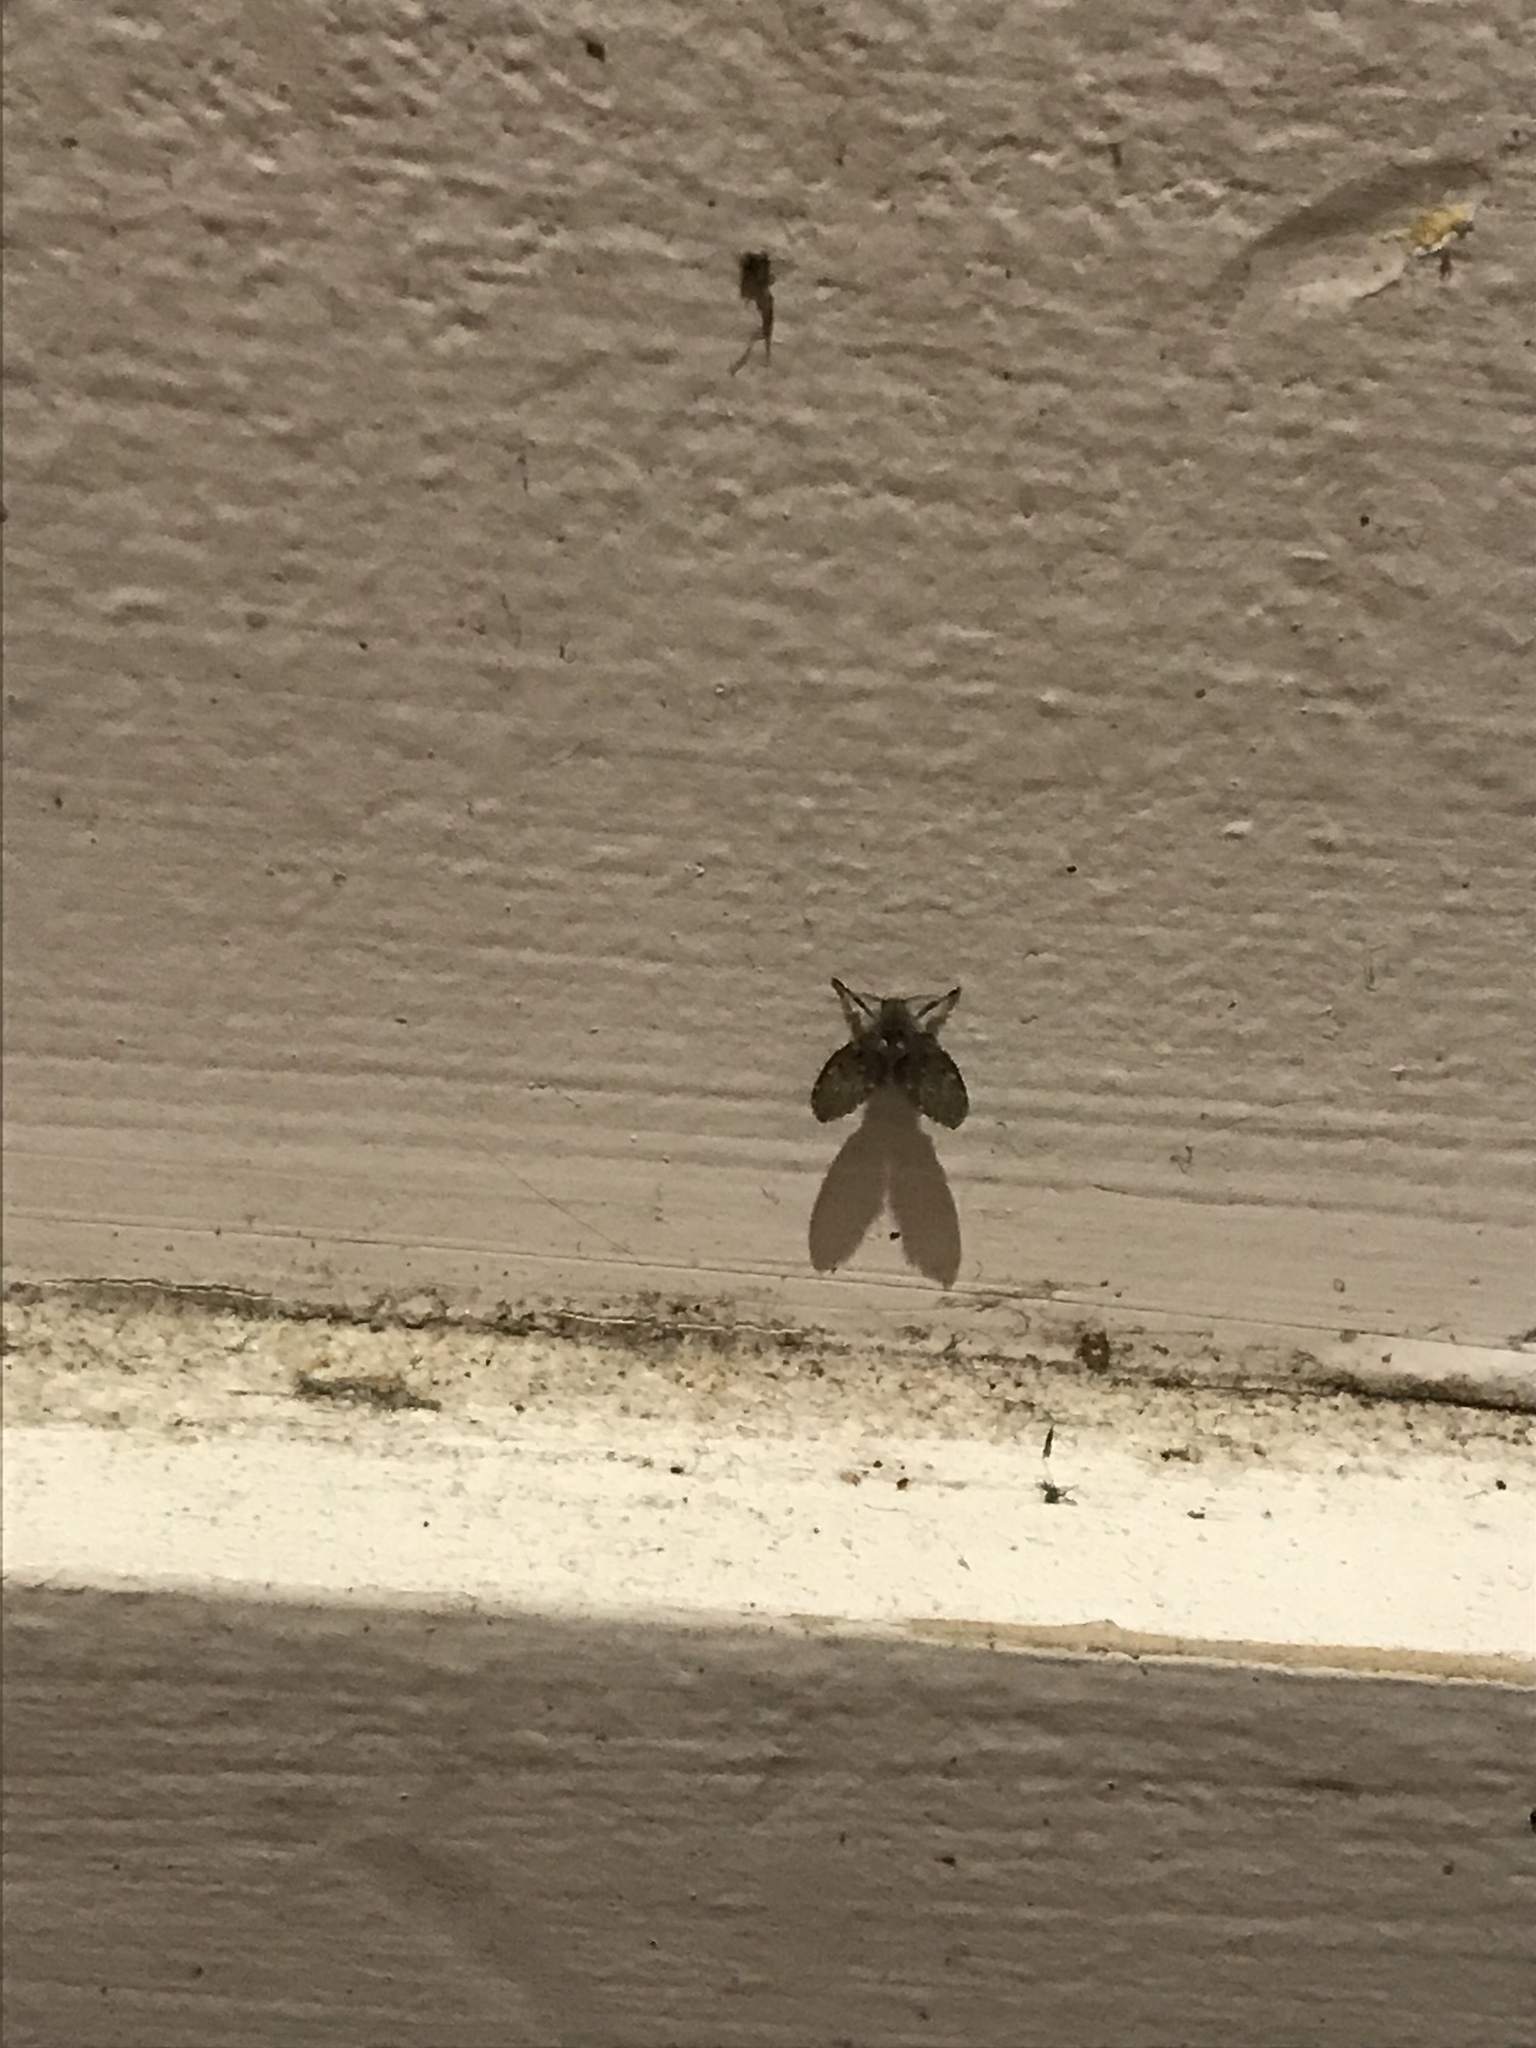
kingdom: Animalia
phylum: Arthropoda
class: Insecta
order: Diptera
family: Psychodidae
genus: Clogmia
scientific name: Clogmia albipunctatus
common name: White-spotted moth fly
